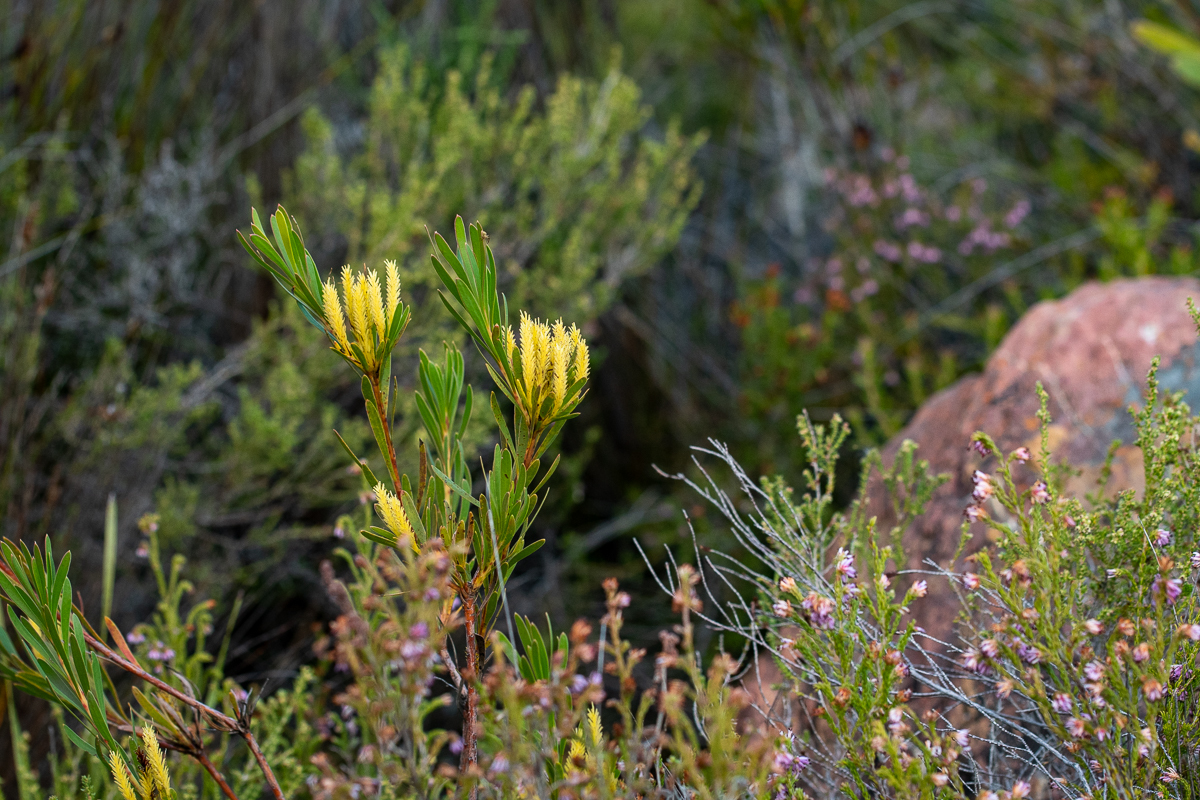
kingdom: Plantae
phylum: Tracheophyta
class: Magnoliopsida
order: Proteales
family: Proteaceae
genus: Aulax
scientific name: Aulax umbellata
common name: Broad-leaf featherbush
